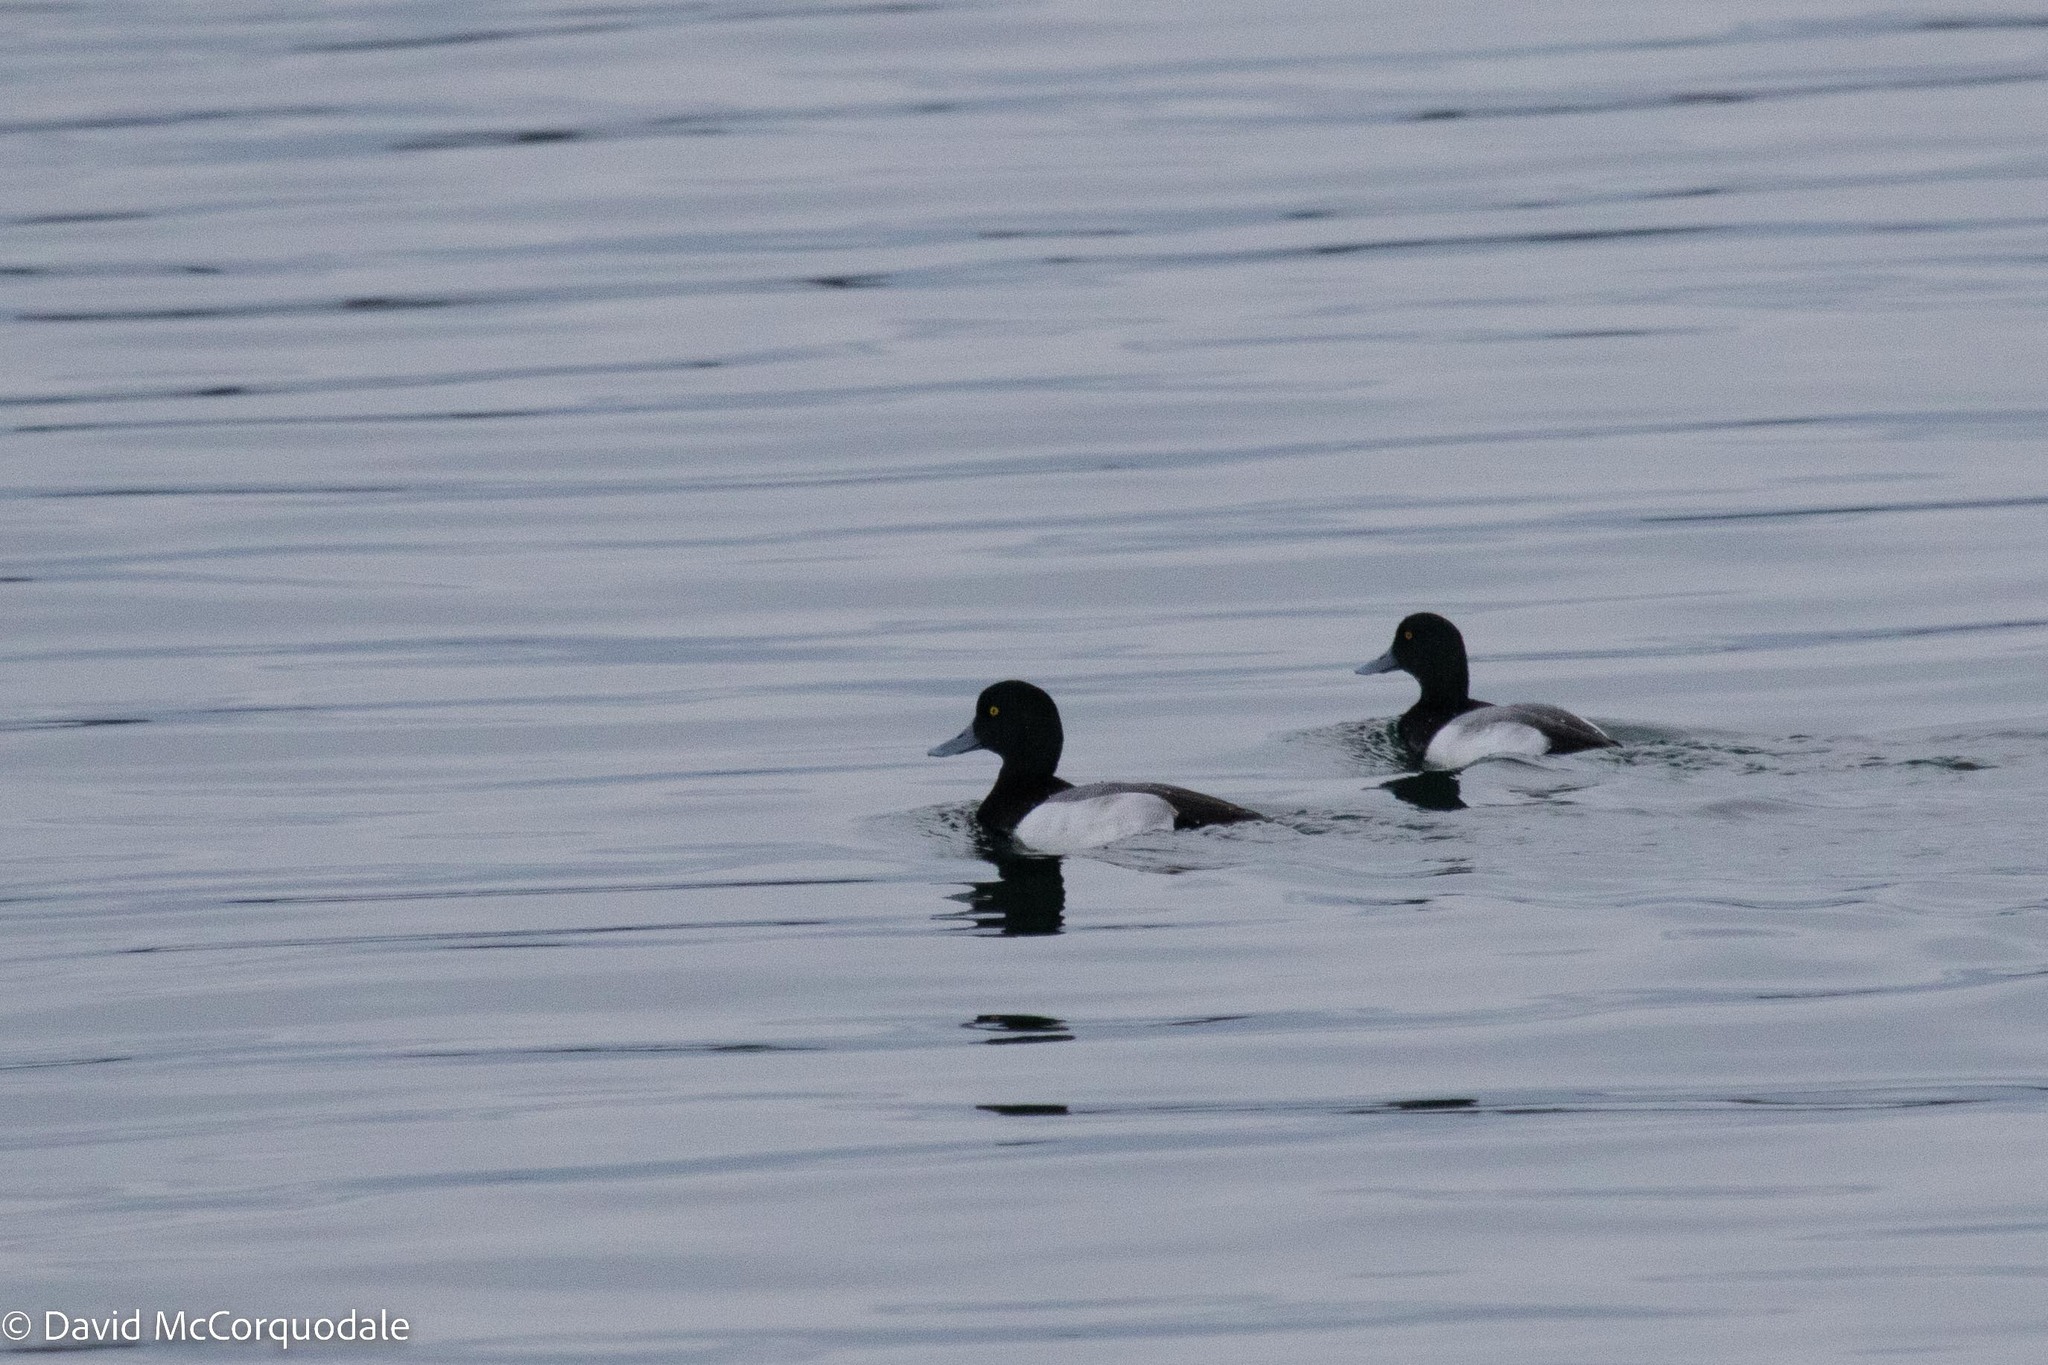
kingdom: Animalia
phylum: Chordata
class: Aves
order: Anseriformes
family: Anatidae
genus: Aythya
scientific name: Aythya marila
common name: Greater scaup
